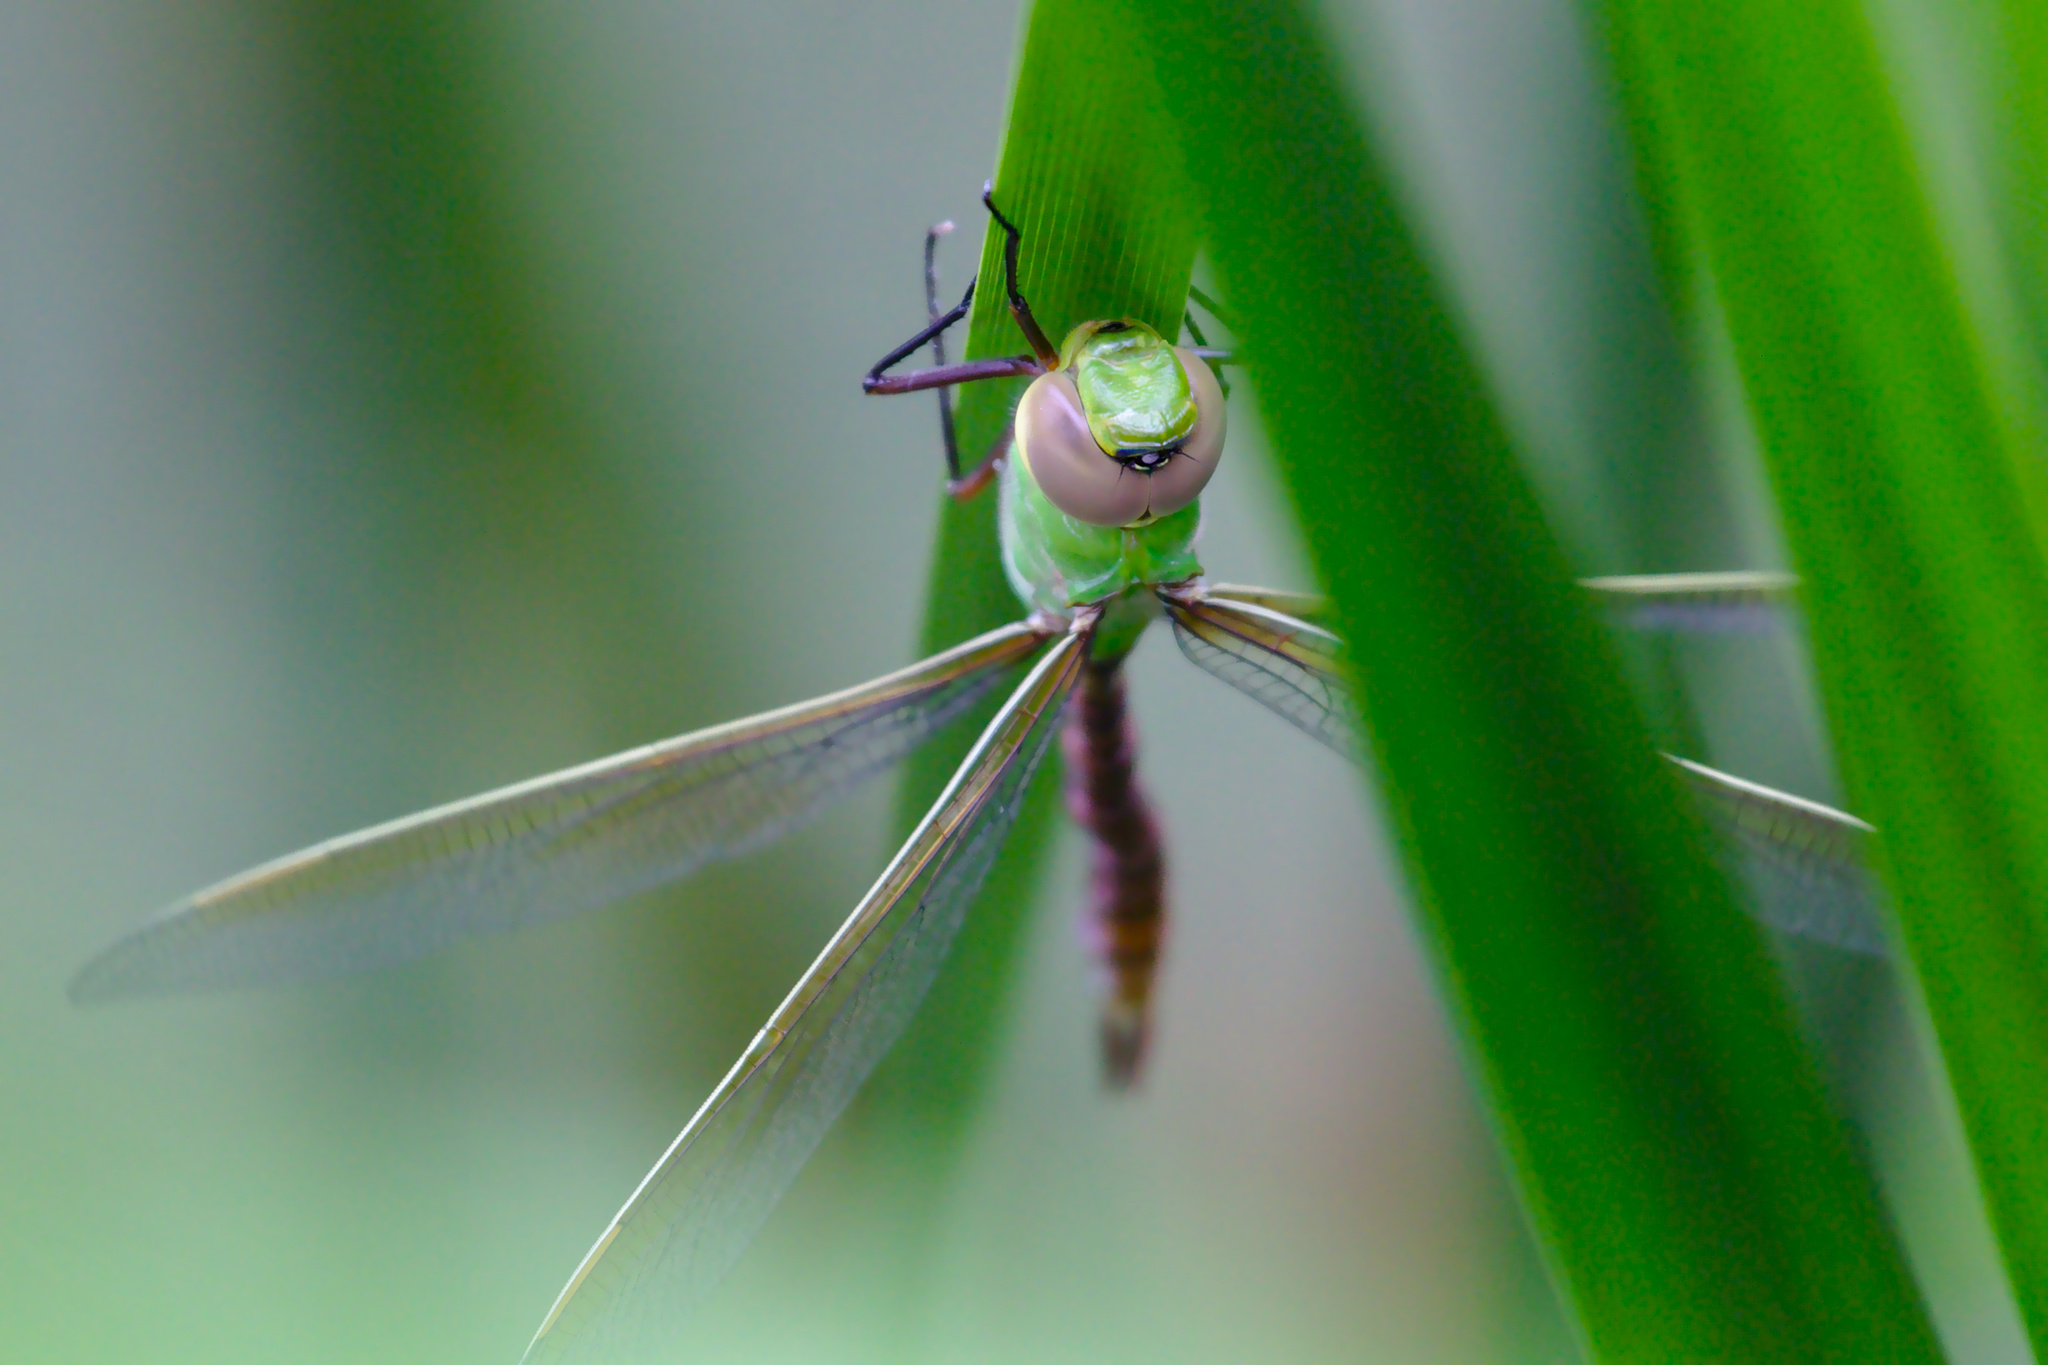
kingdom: Animalia
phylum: Arthropoda
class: Insecta
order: Odonata
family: Aeshnidae
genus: Anax
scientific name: Anax junius
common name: Common green darner
